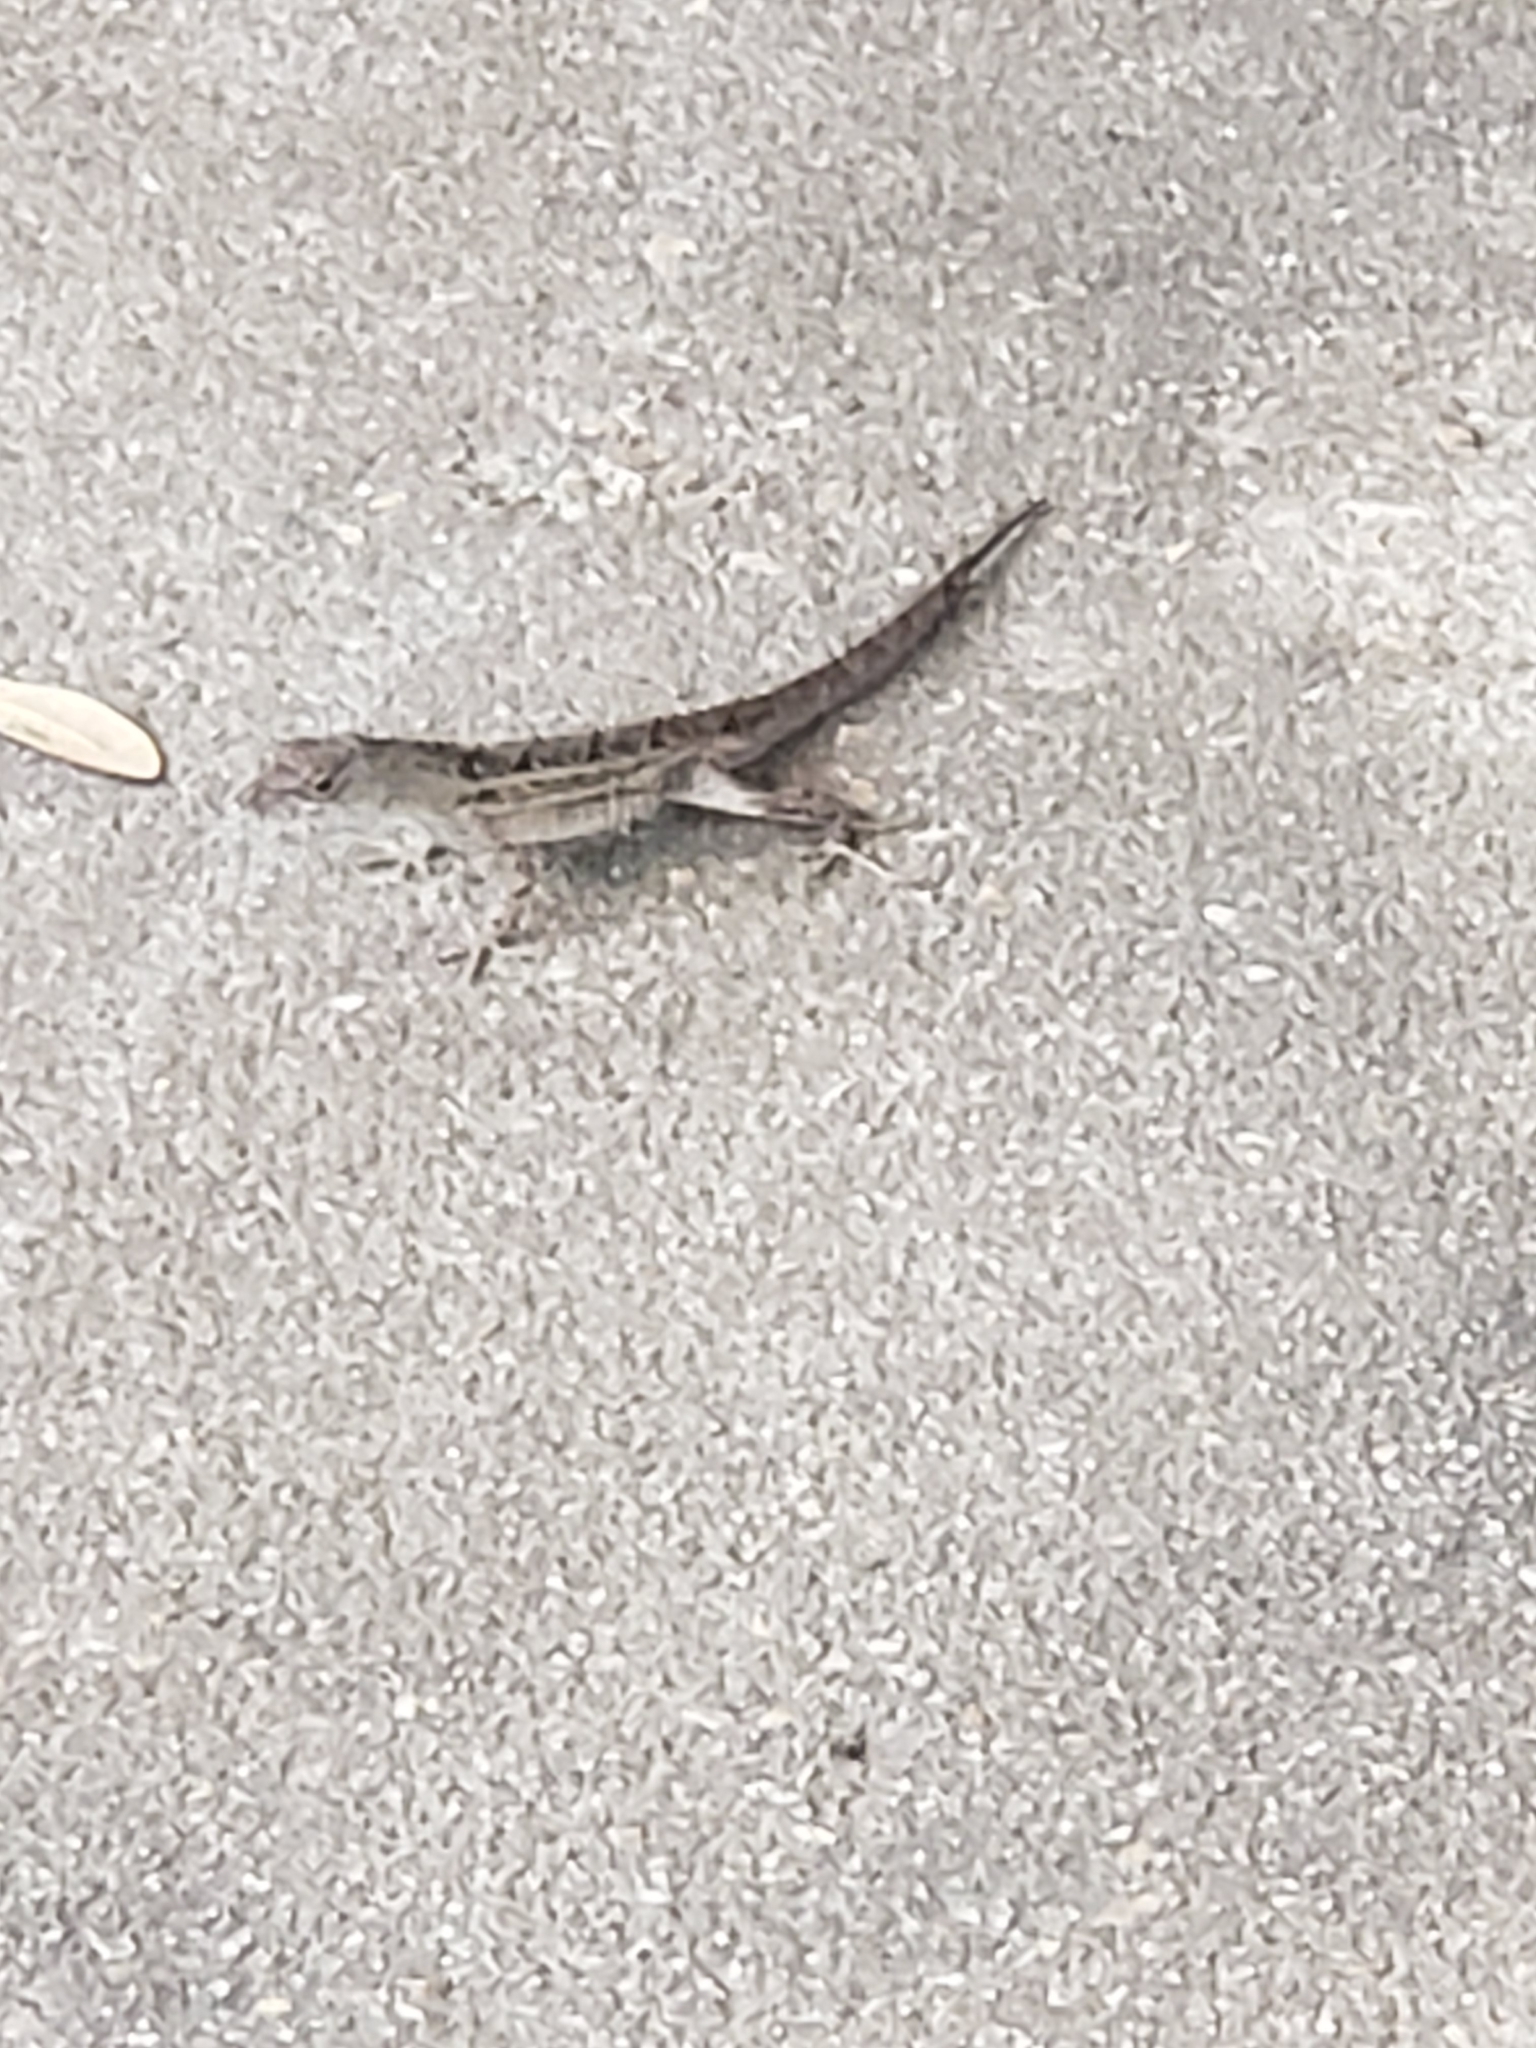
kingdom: Animalia
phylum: Chordata
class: Squamata
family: Dactyloidae
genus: Anolis
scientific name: Anolis sagrei
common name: Brown anole
